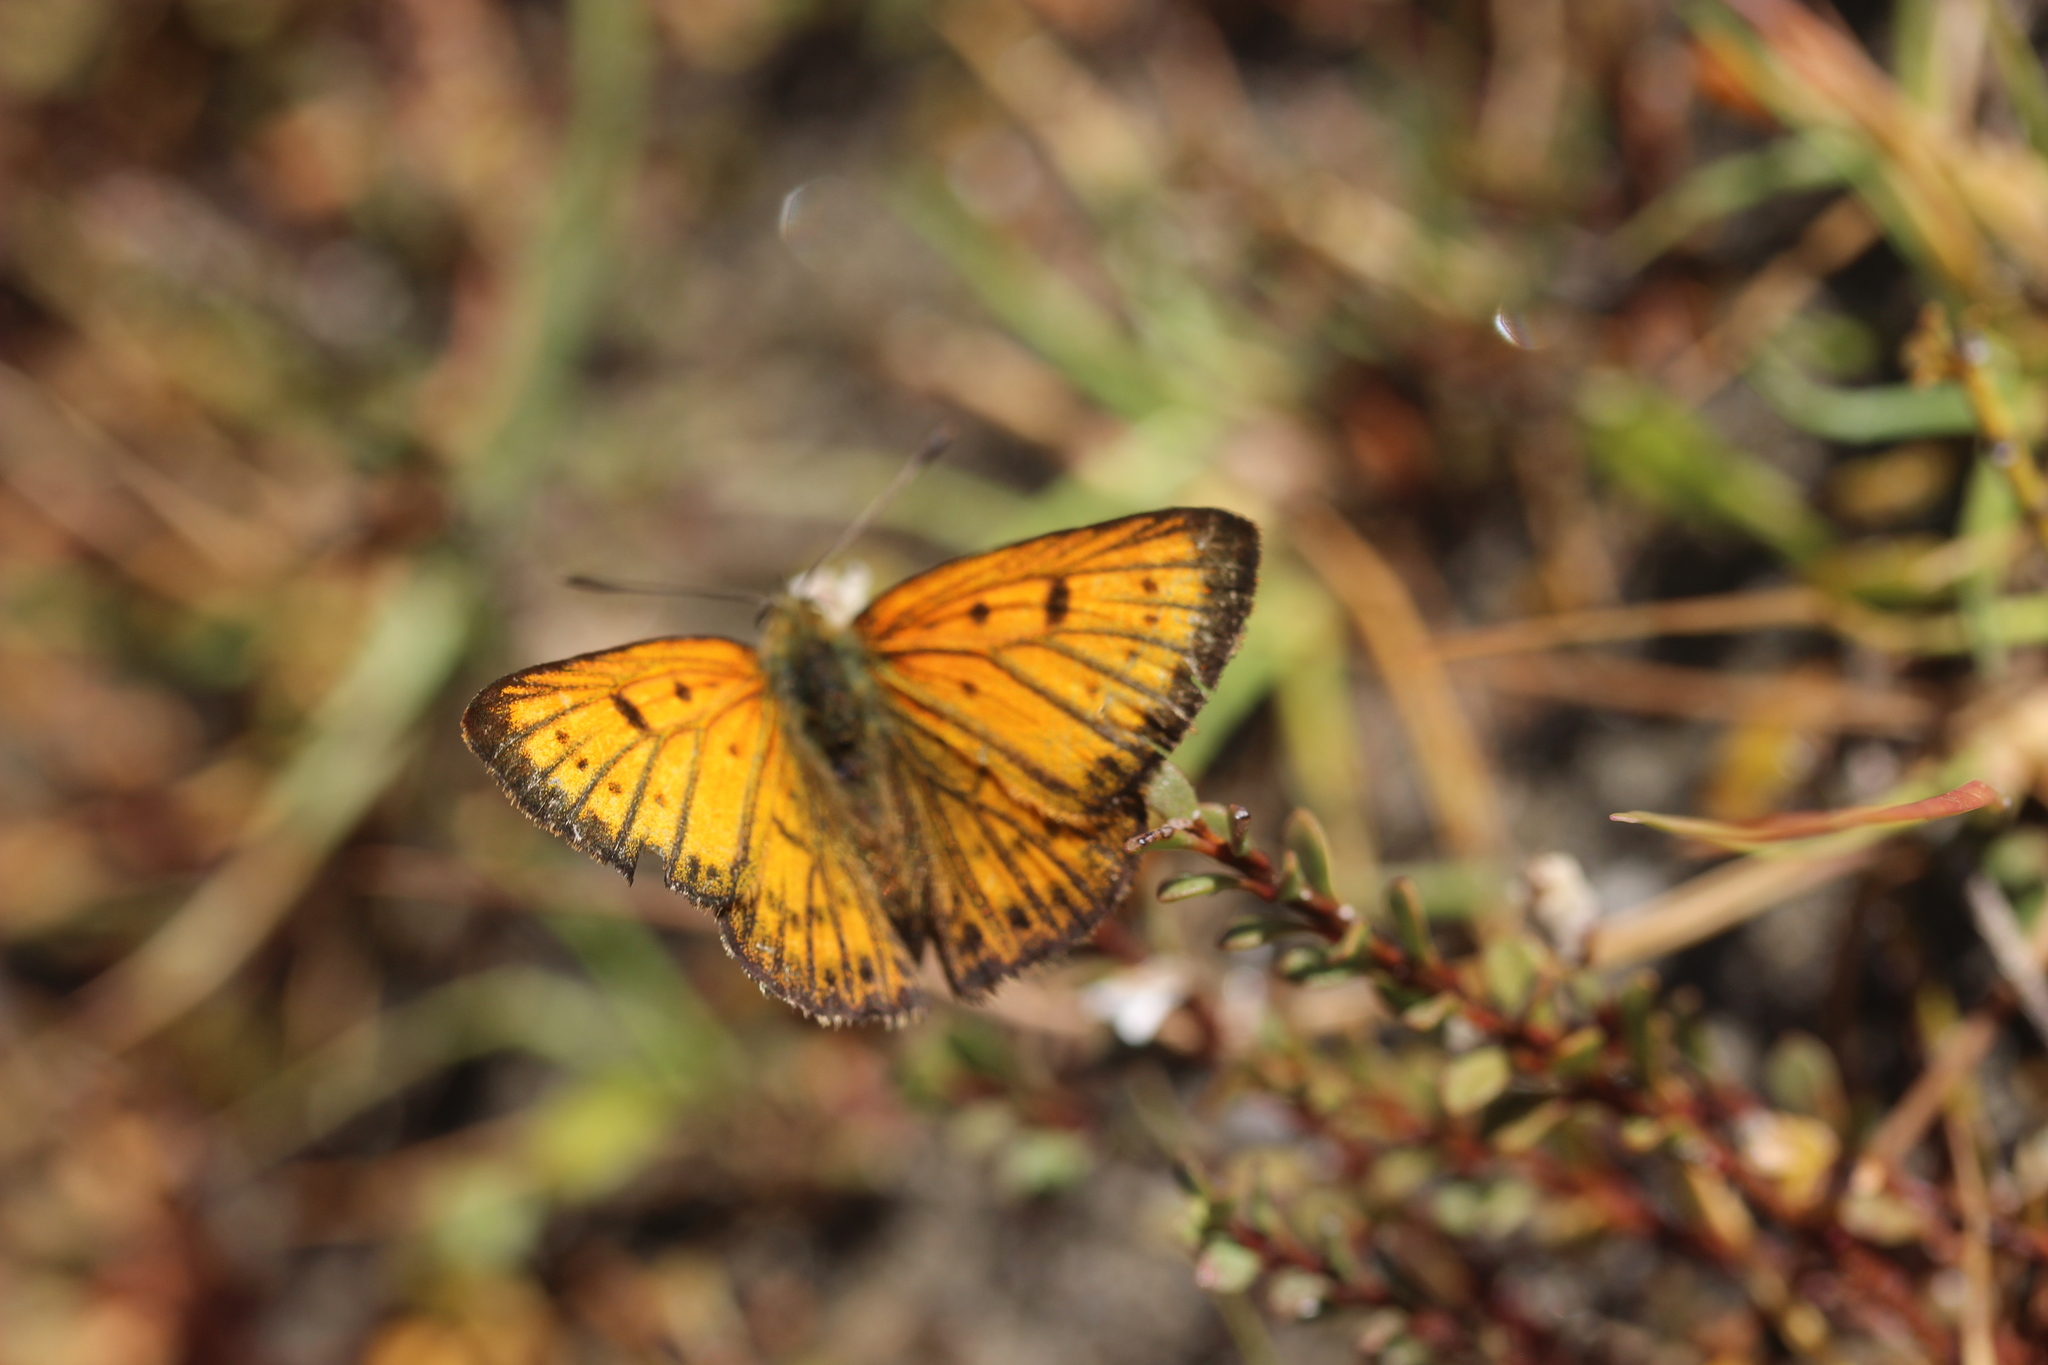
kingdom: Animalia
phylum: Arthropoda
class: Insecta
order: Lepidoptera
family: Lycaenidae
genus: Lycaena
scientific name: Lycaena salustius
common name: North island coastal copper
